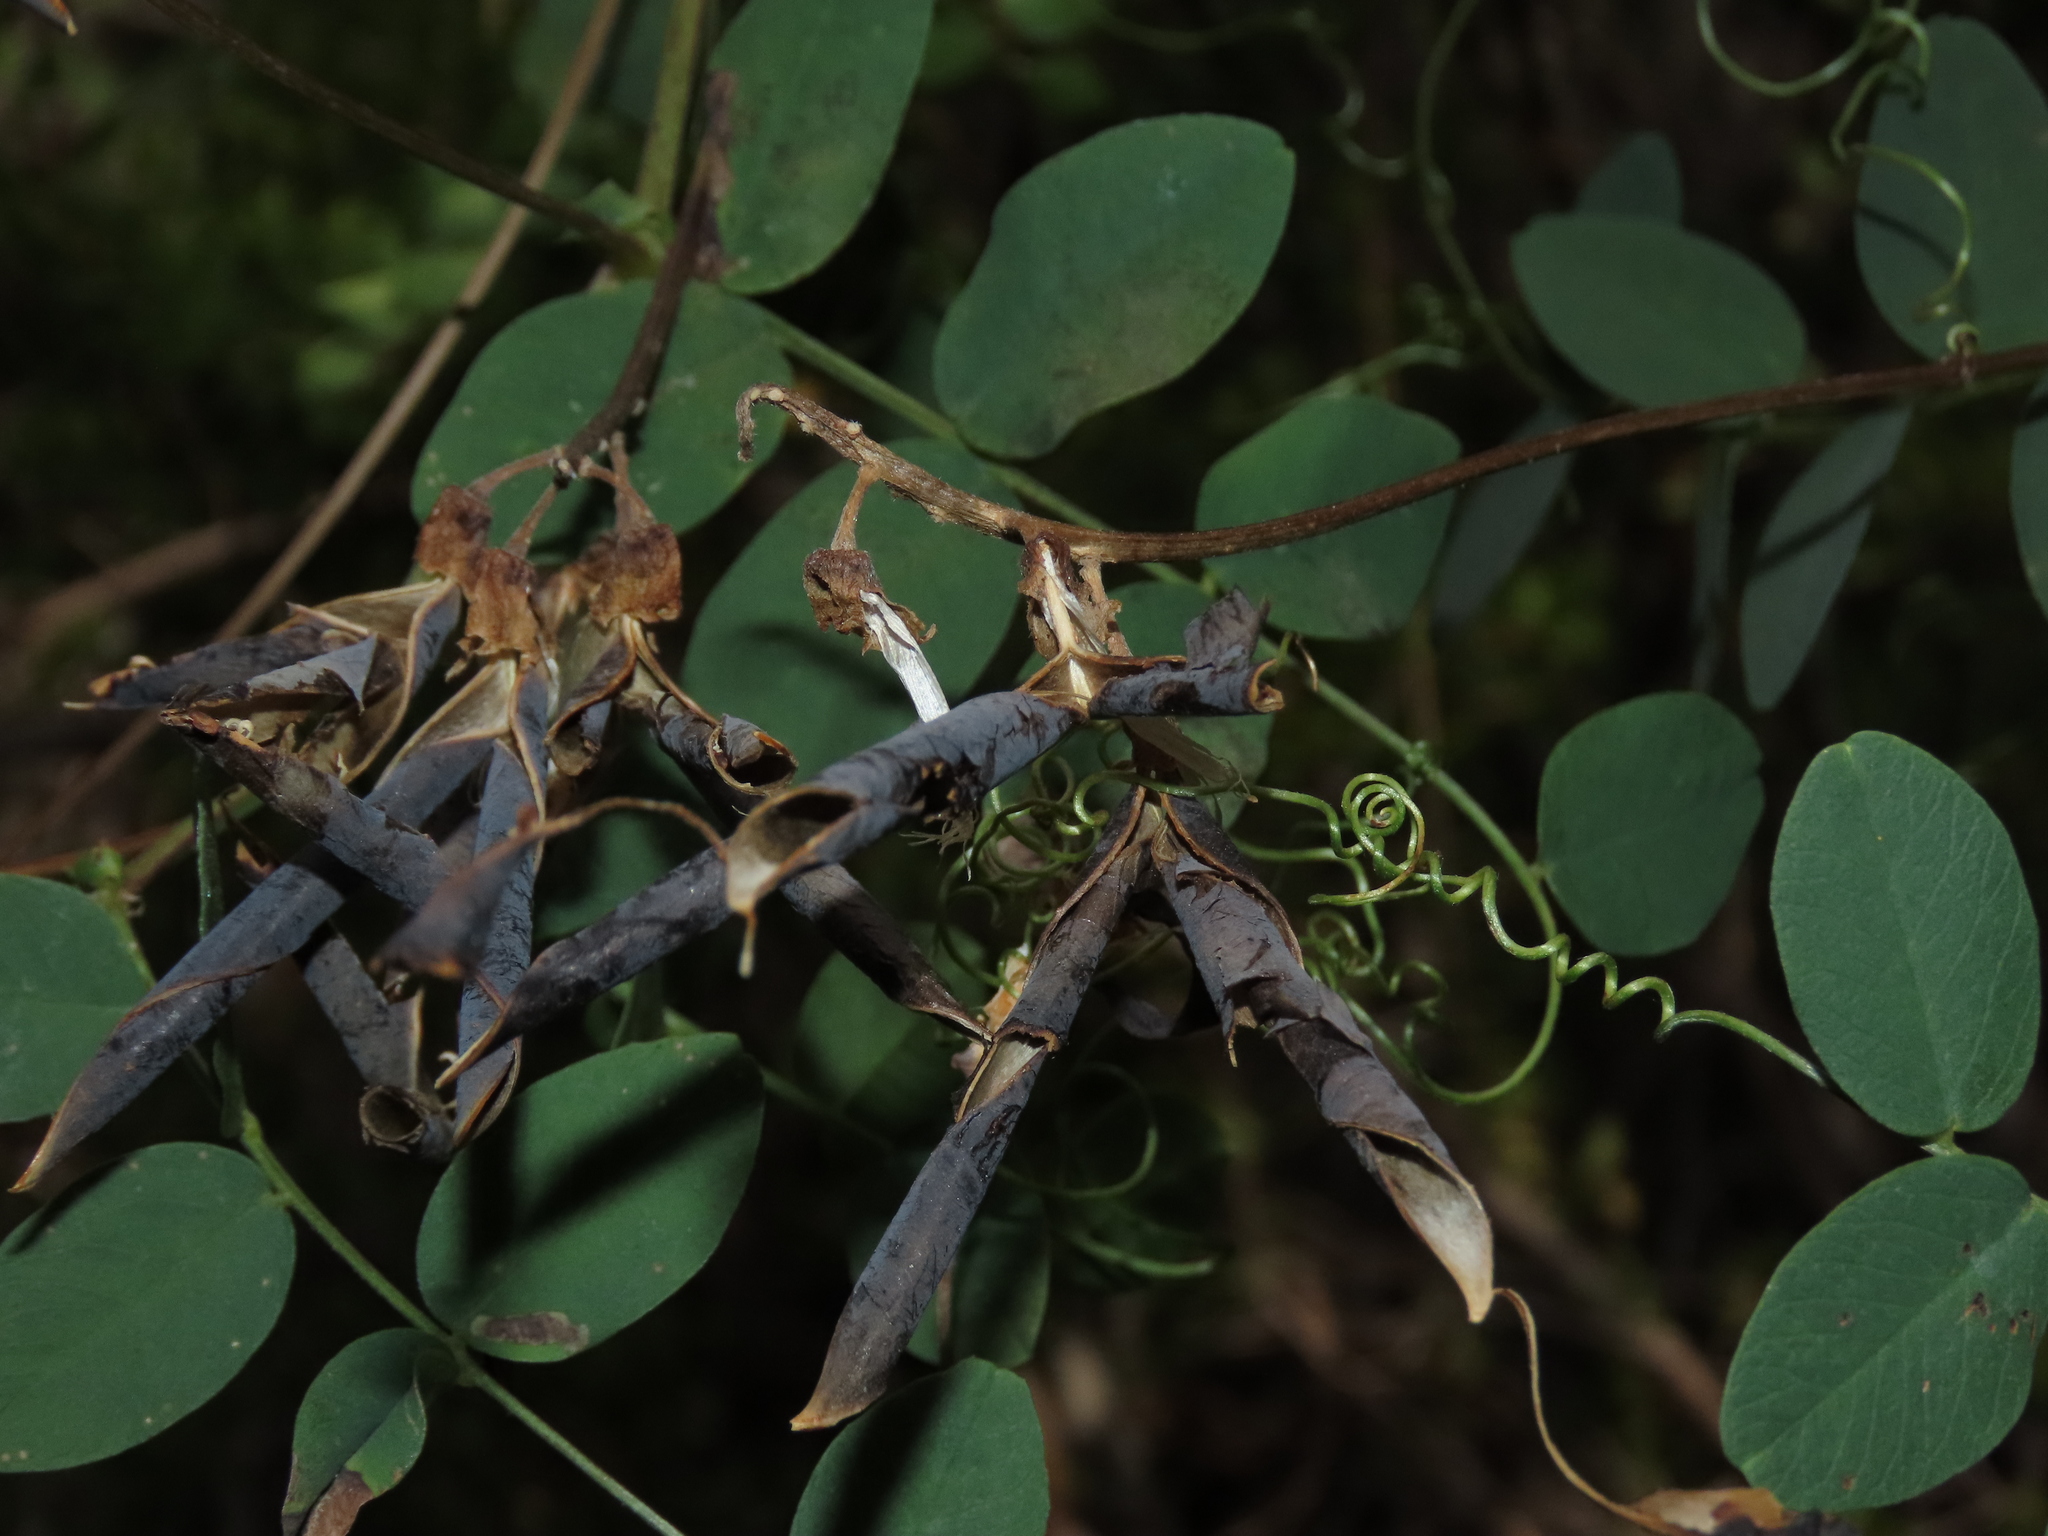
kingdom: Plantae
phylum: Tracheophyta
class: Magnoliopsida
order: Fabales
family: Fabaceae
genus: Vicia
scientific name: Vicia nigricans
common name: Black vetch
